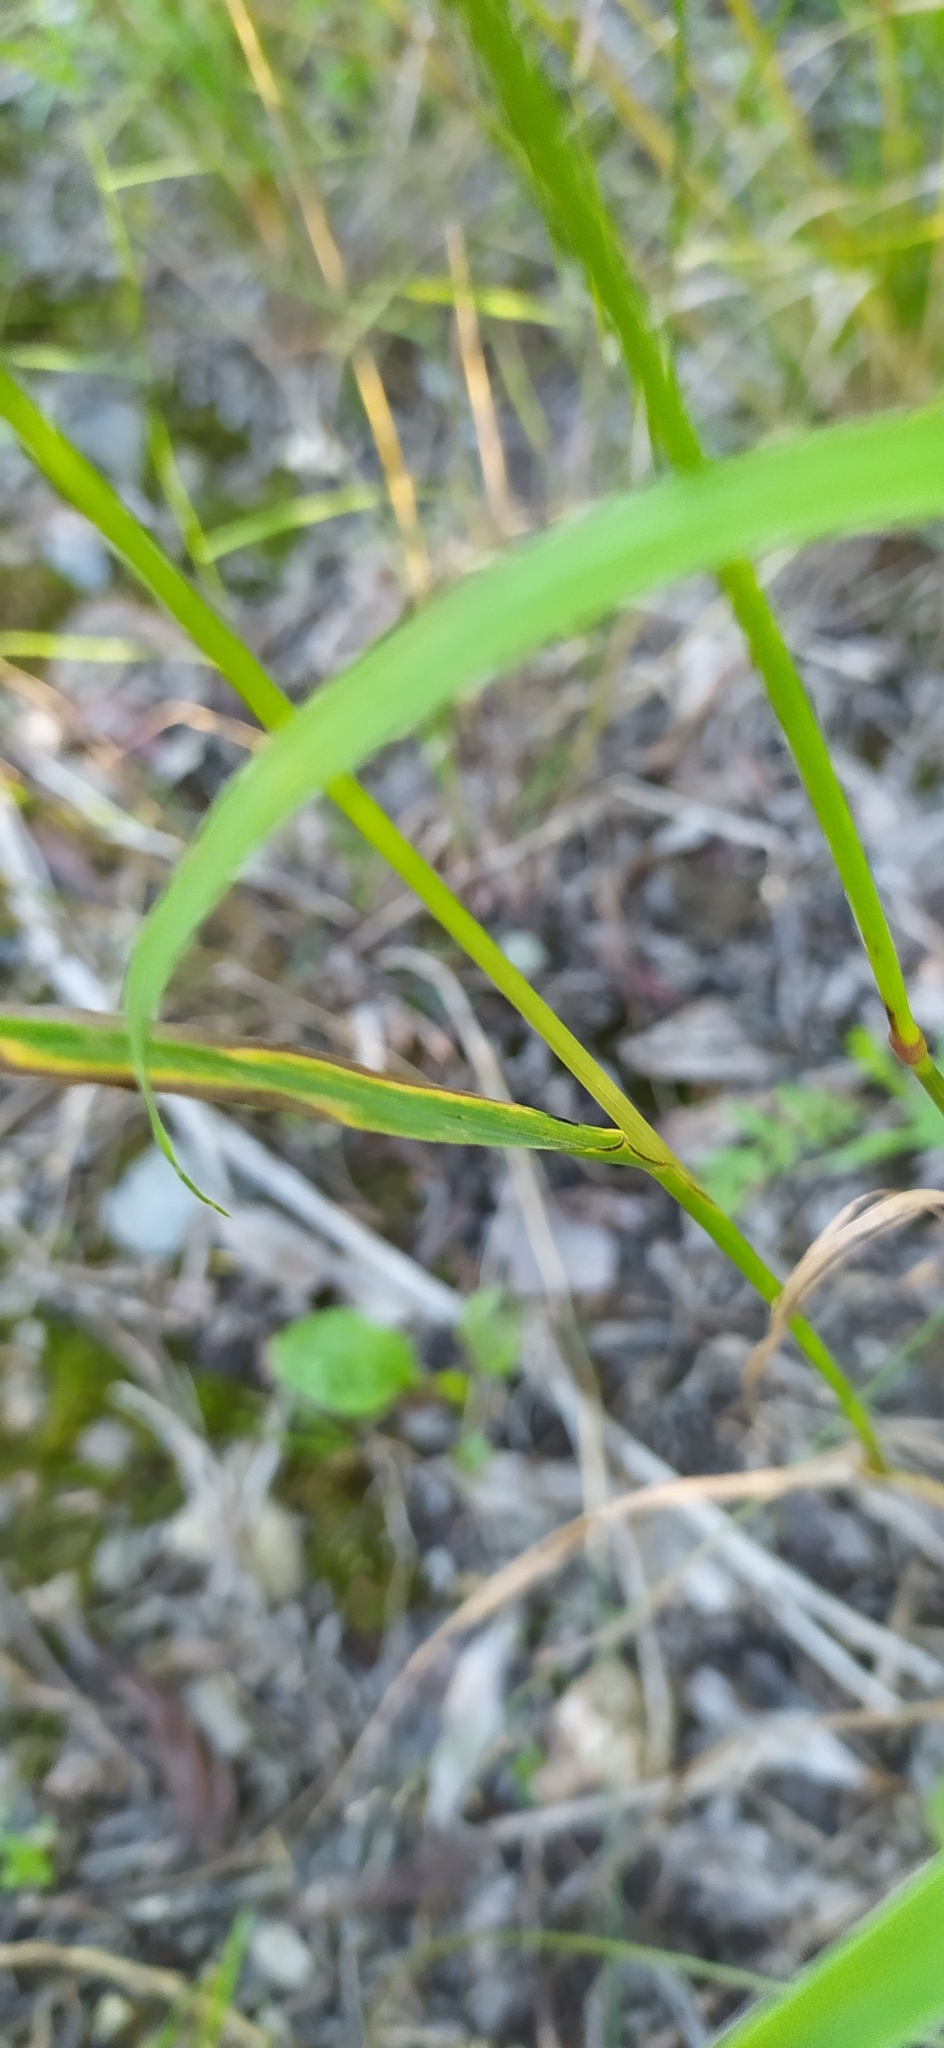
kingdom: Plantae
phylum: Tracheophyta
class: Liliopsida
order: Poales
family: Poaceae
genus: Elymus
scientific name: Elymus sibiricus
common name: Siberian wildrye
